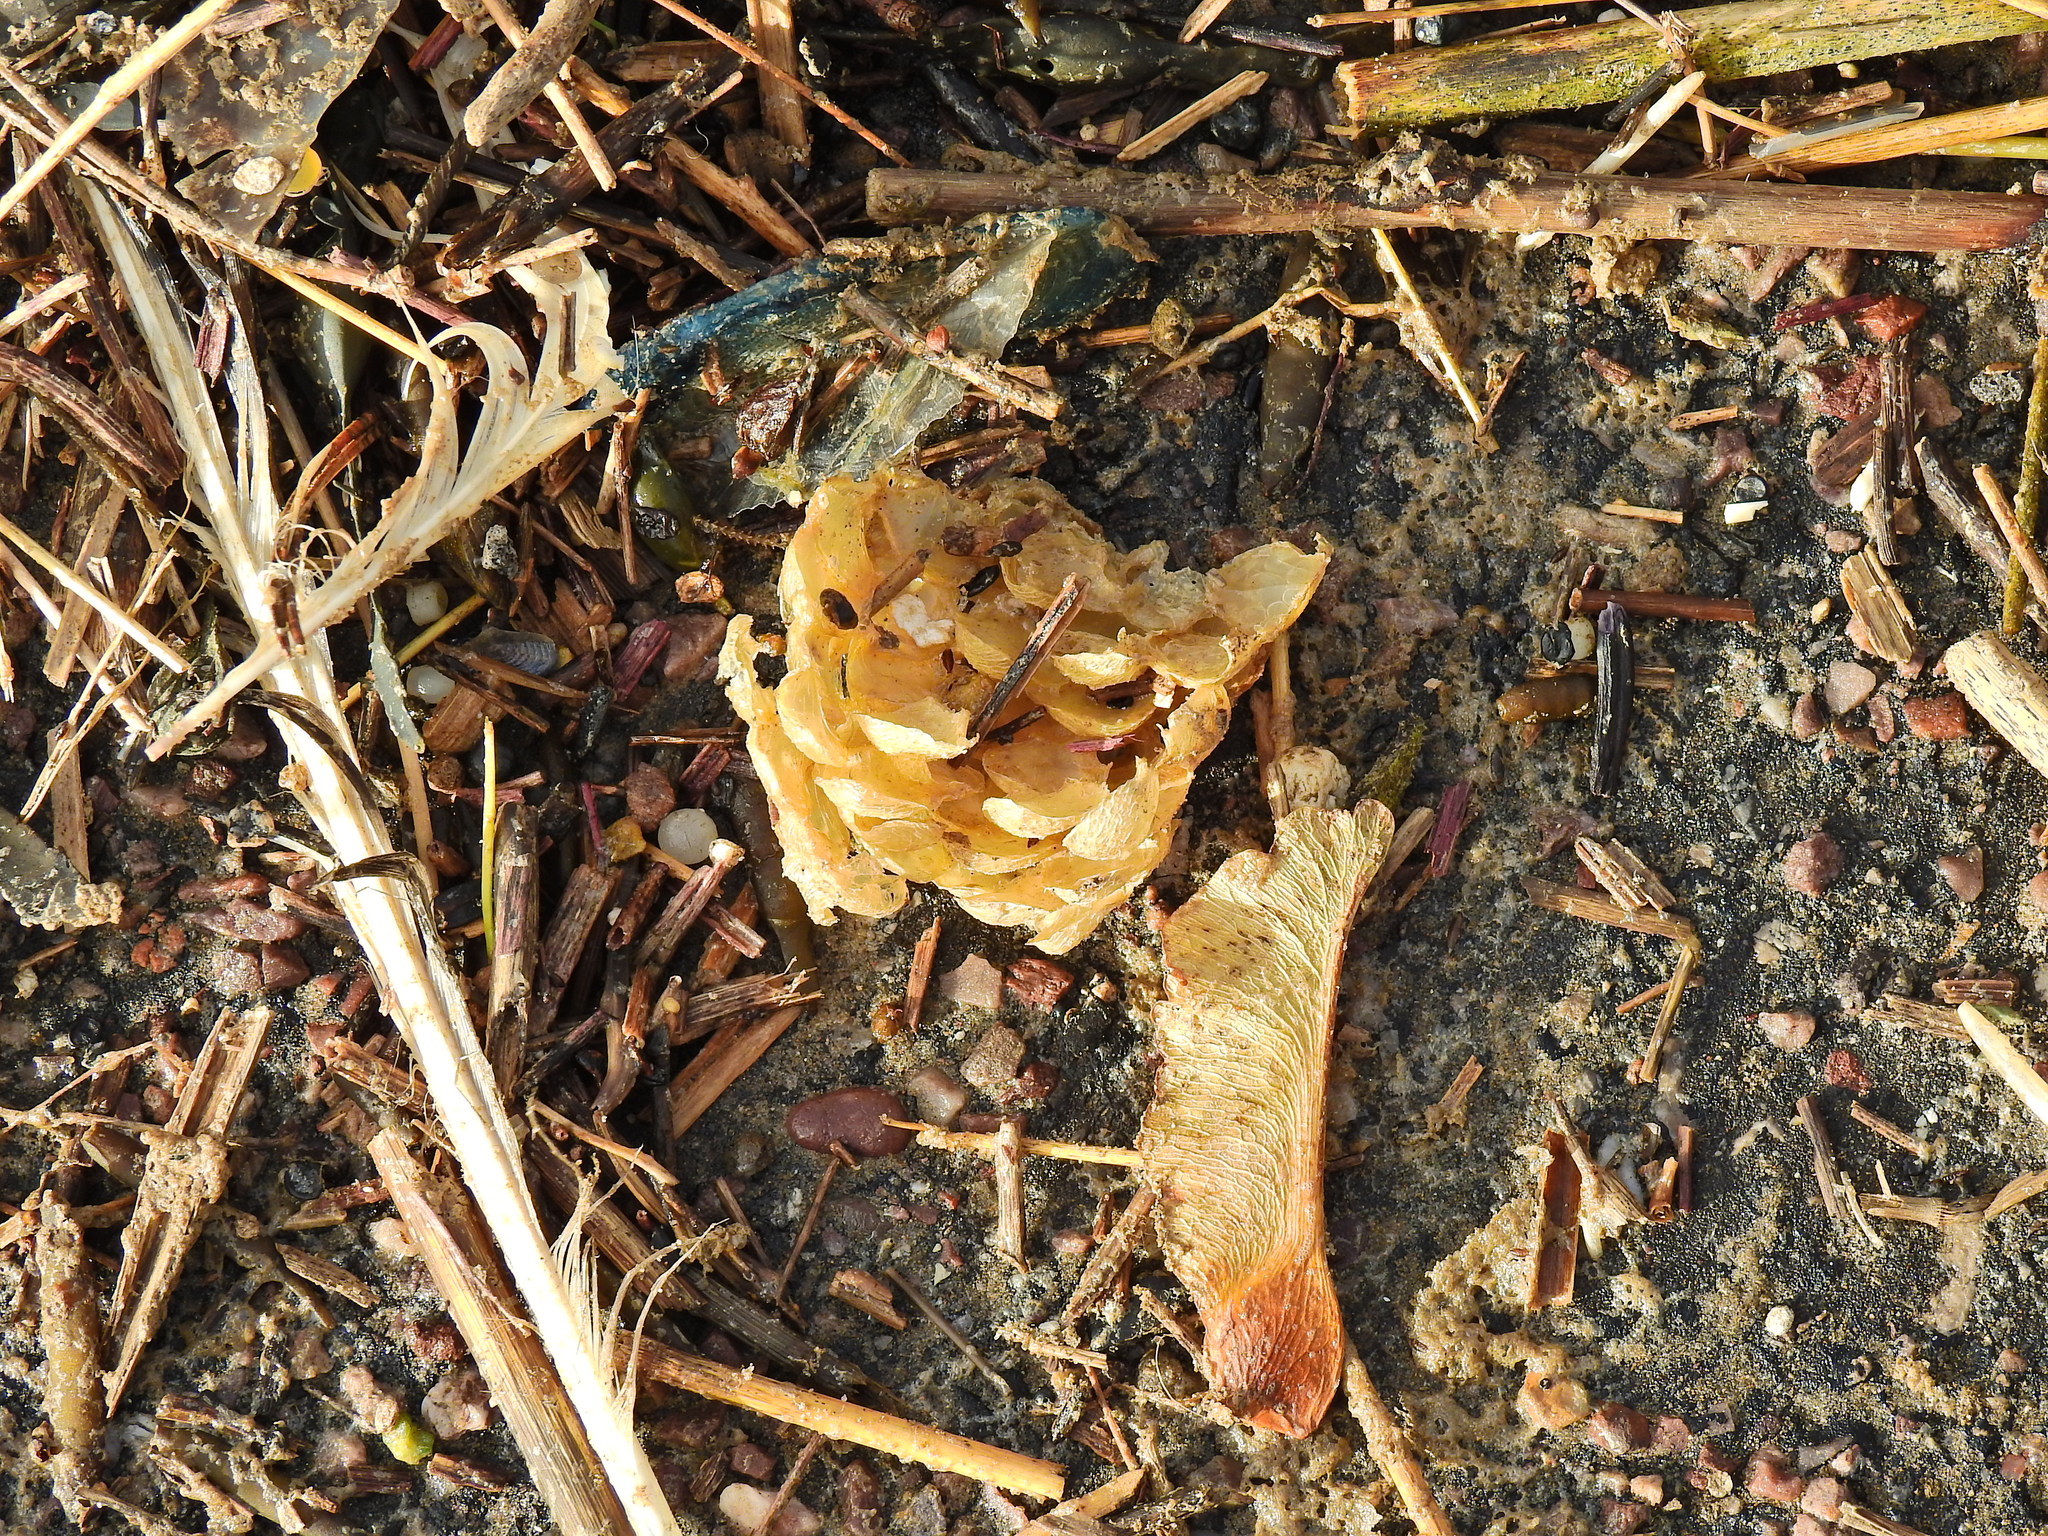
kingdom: Animalia
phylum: Mollusca
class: Gastropoda
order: Neogastropoda
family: Buccinidae
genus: Buccinum
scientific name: Buccinum undatum
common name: Common whelk
